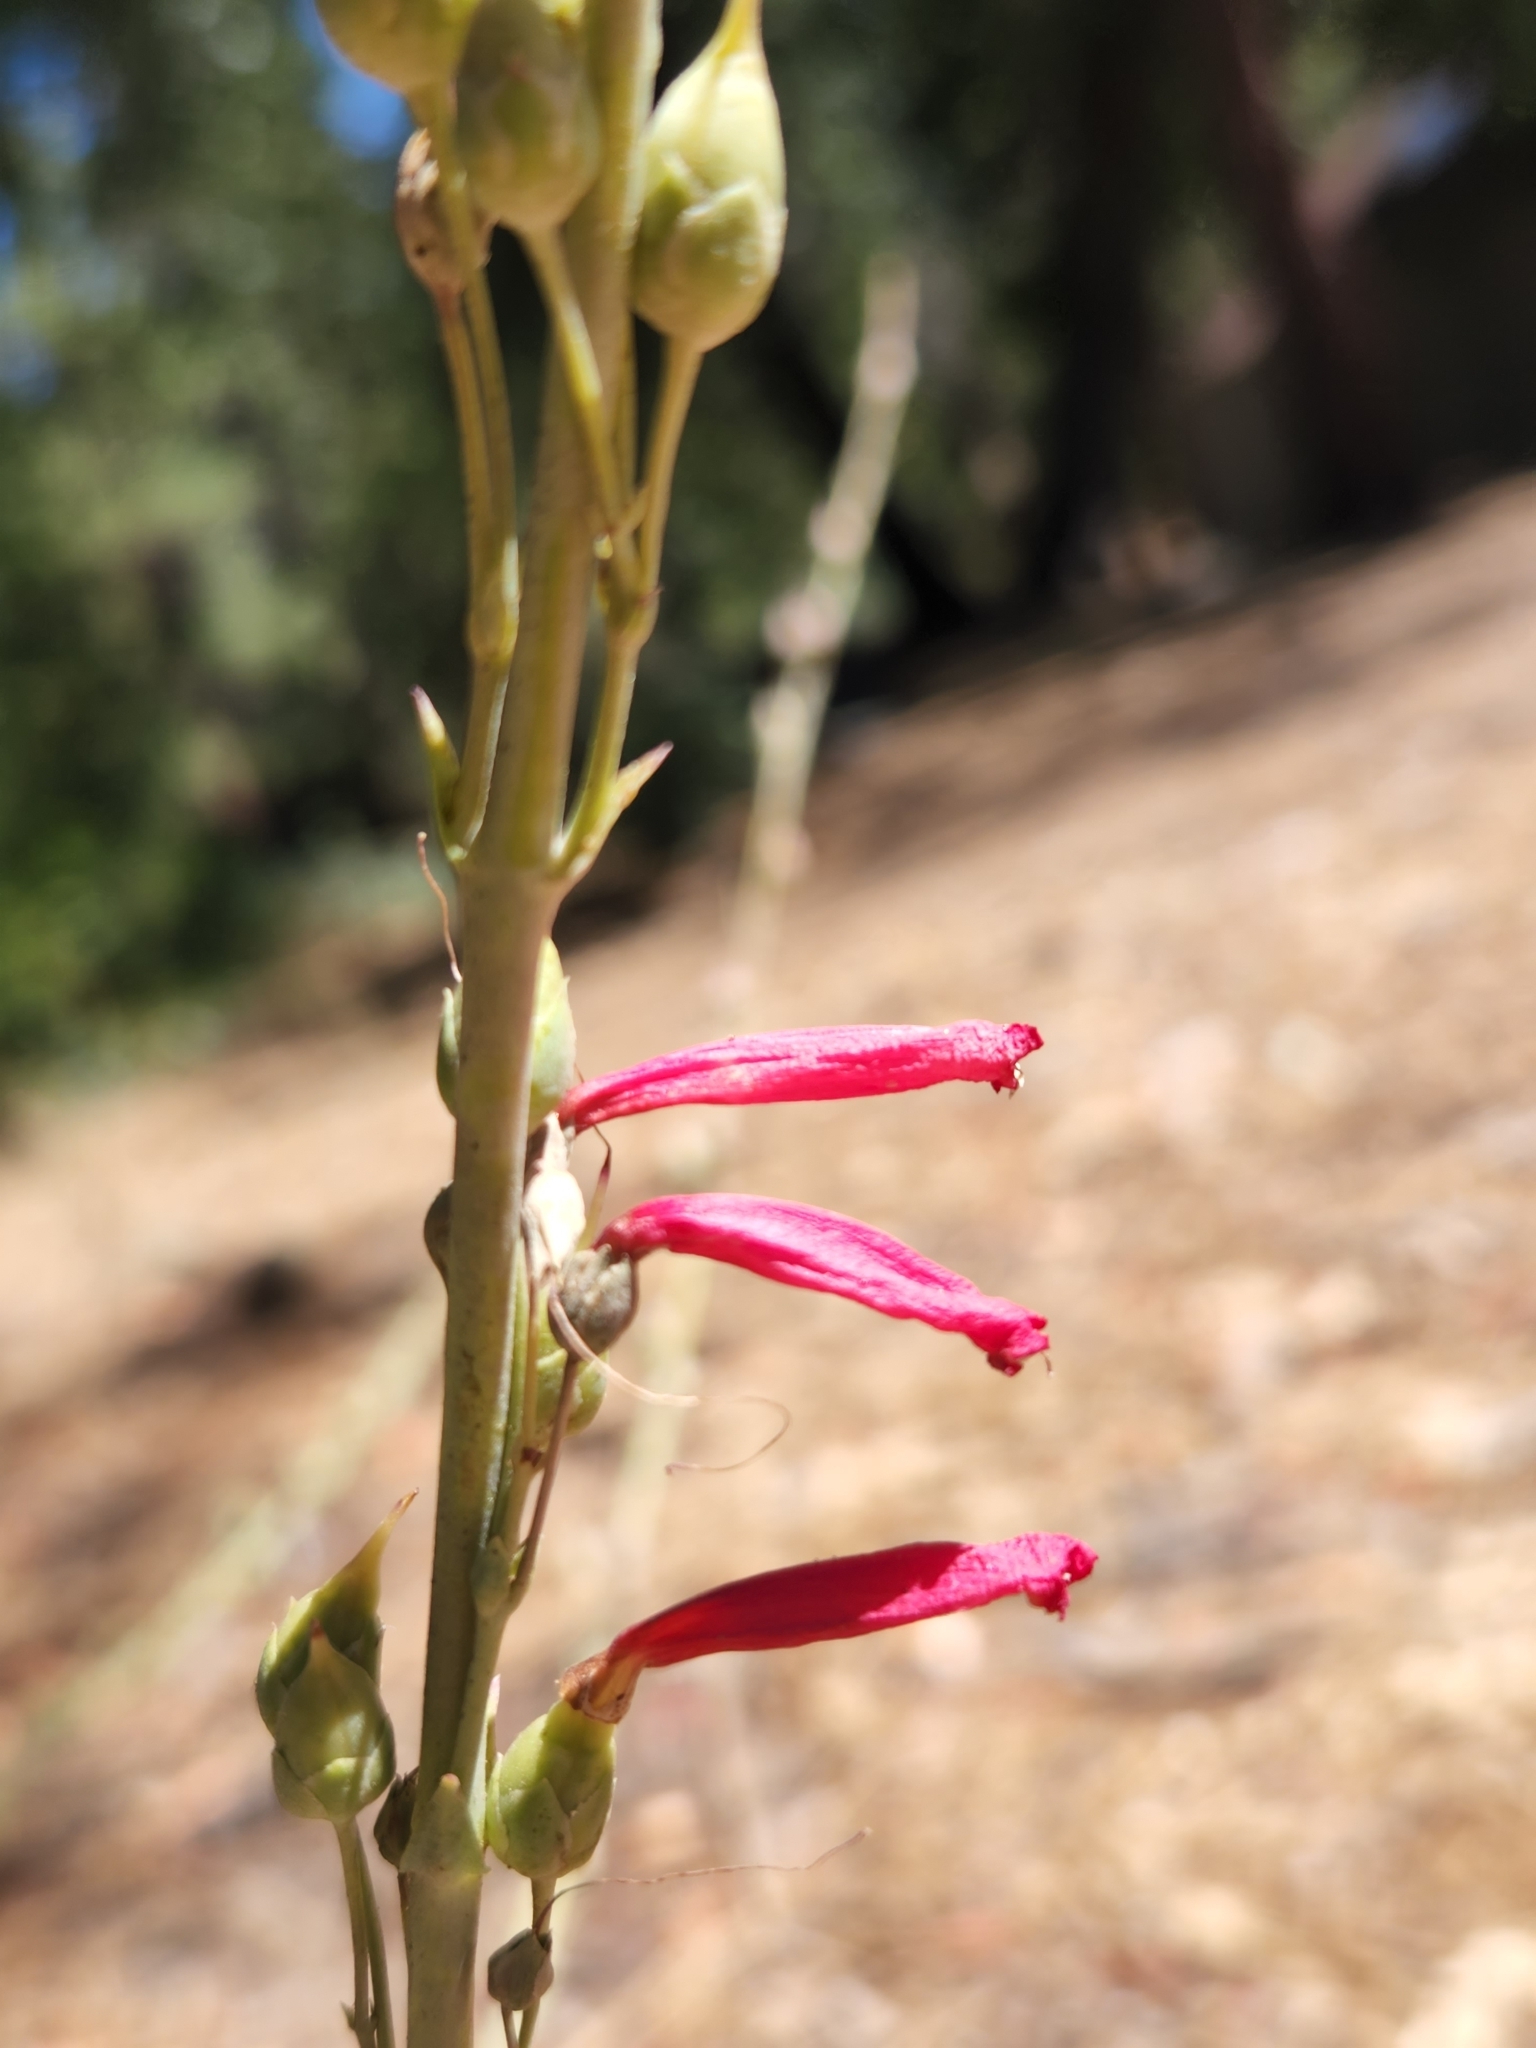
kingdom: Plantae
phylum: Tracheophyta
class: Magnoliopsida
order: Lamiales
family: Plantaginaceae
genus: Penstemon
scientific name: Penstemon centranthifolius
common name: Scarlet bugler
